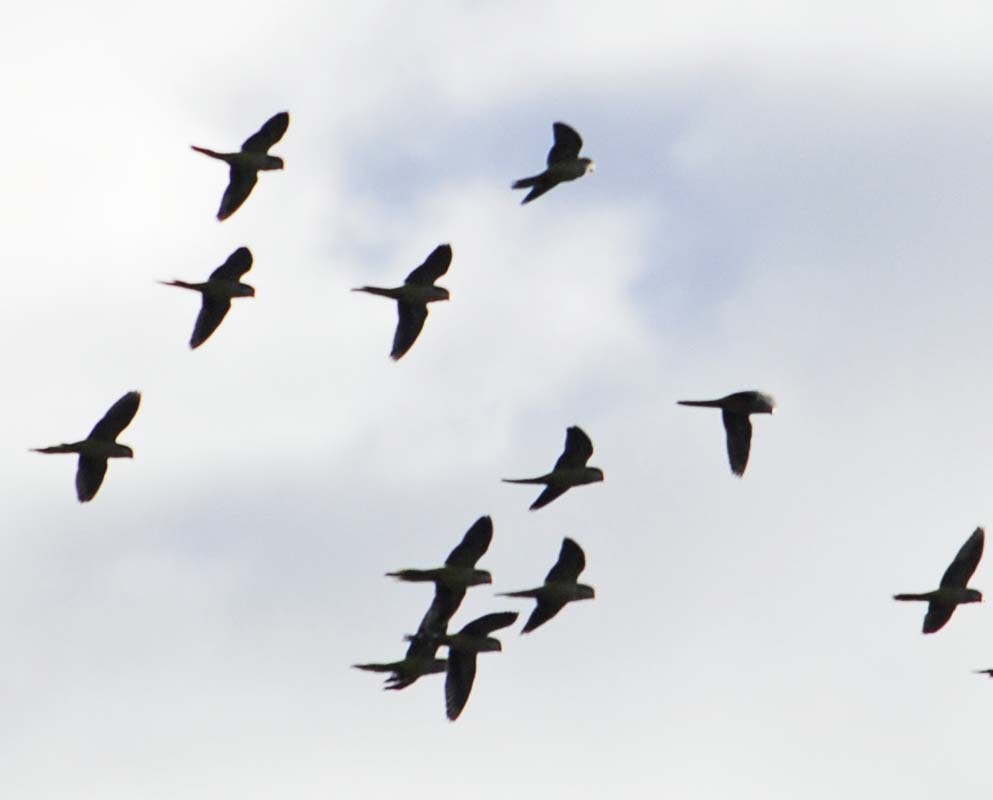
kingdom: Animalia
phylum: Chordata
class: Aves
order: Psittaciformes
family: Psittacidae
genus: Myiopsitta
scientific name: Myiopsitta monachus
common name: Monk parakeet
